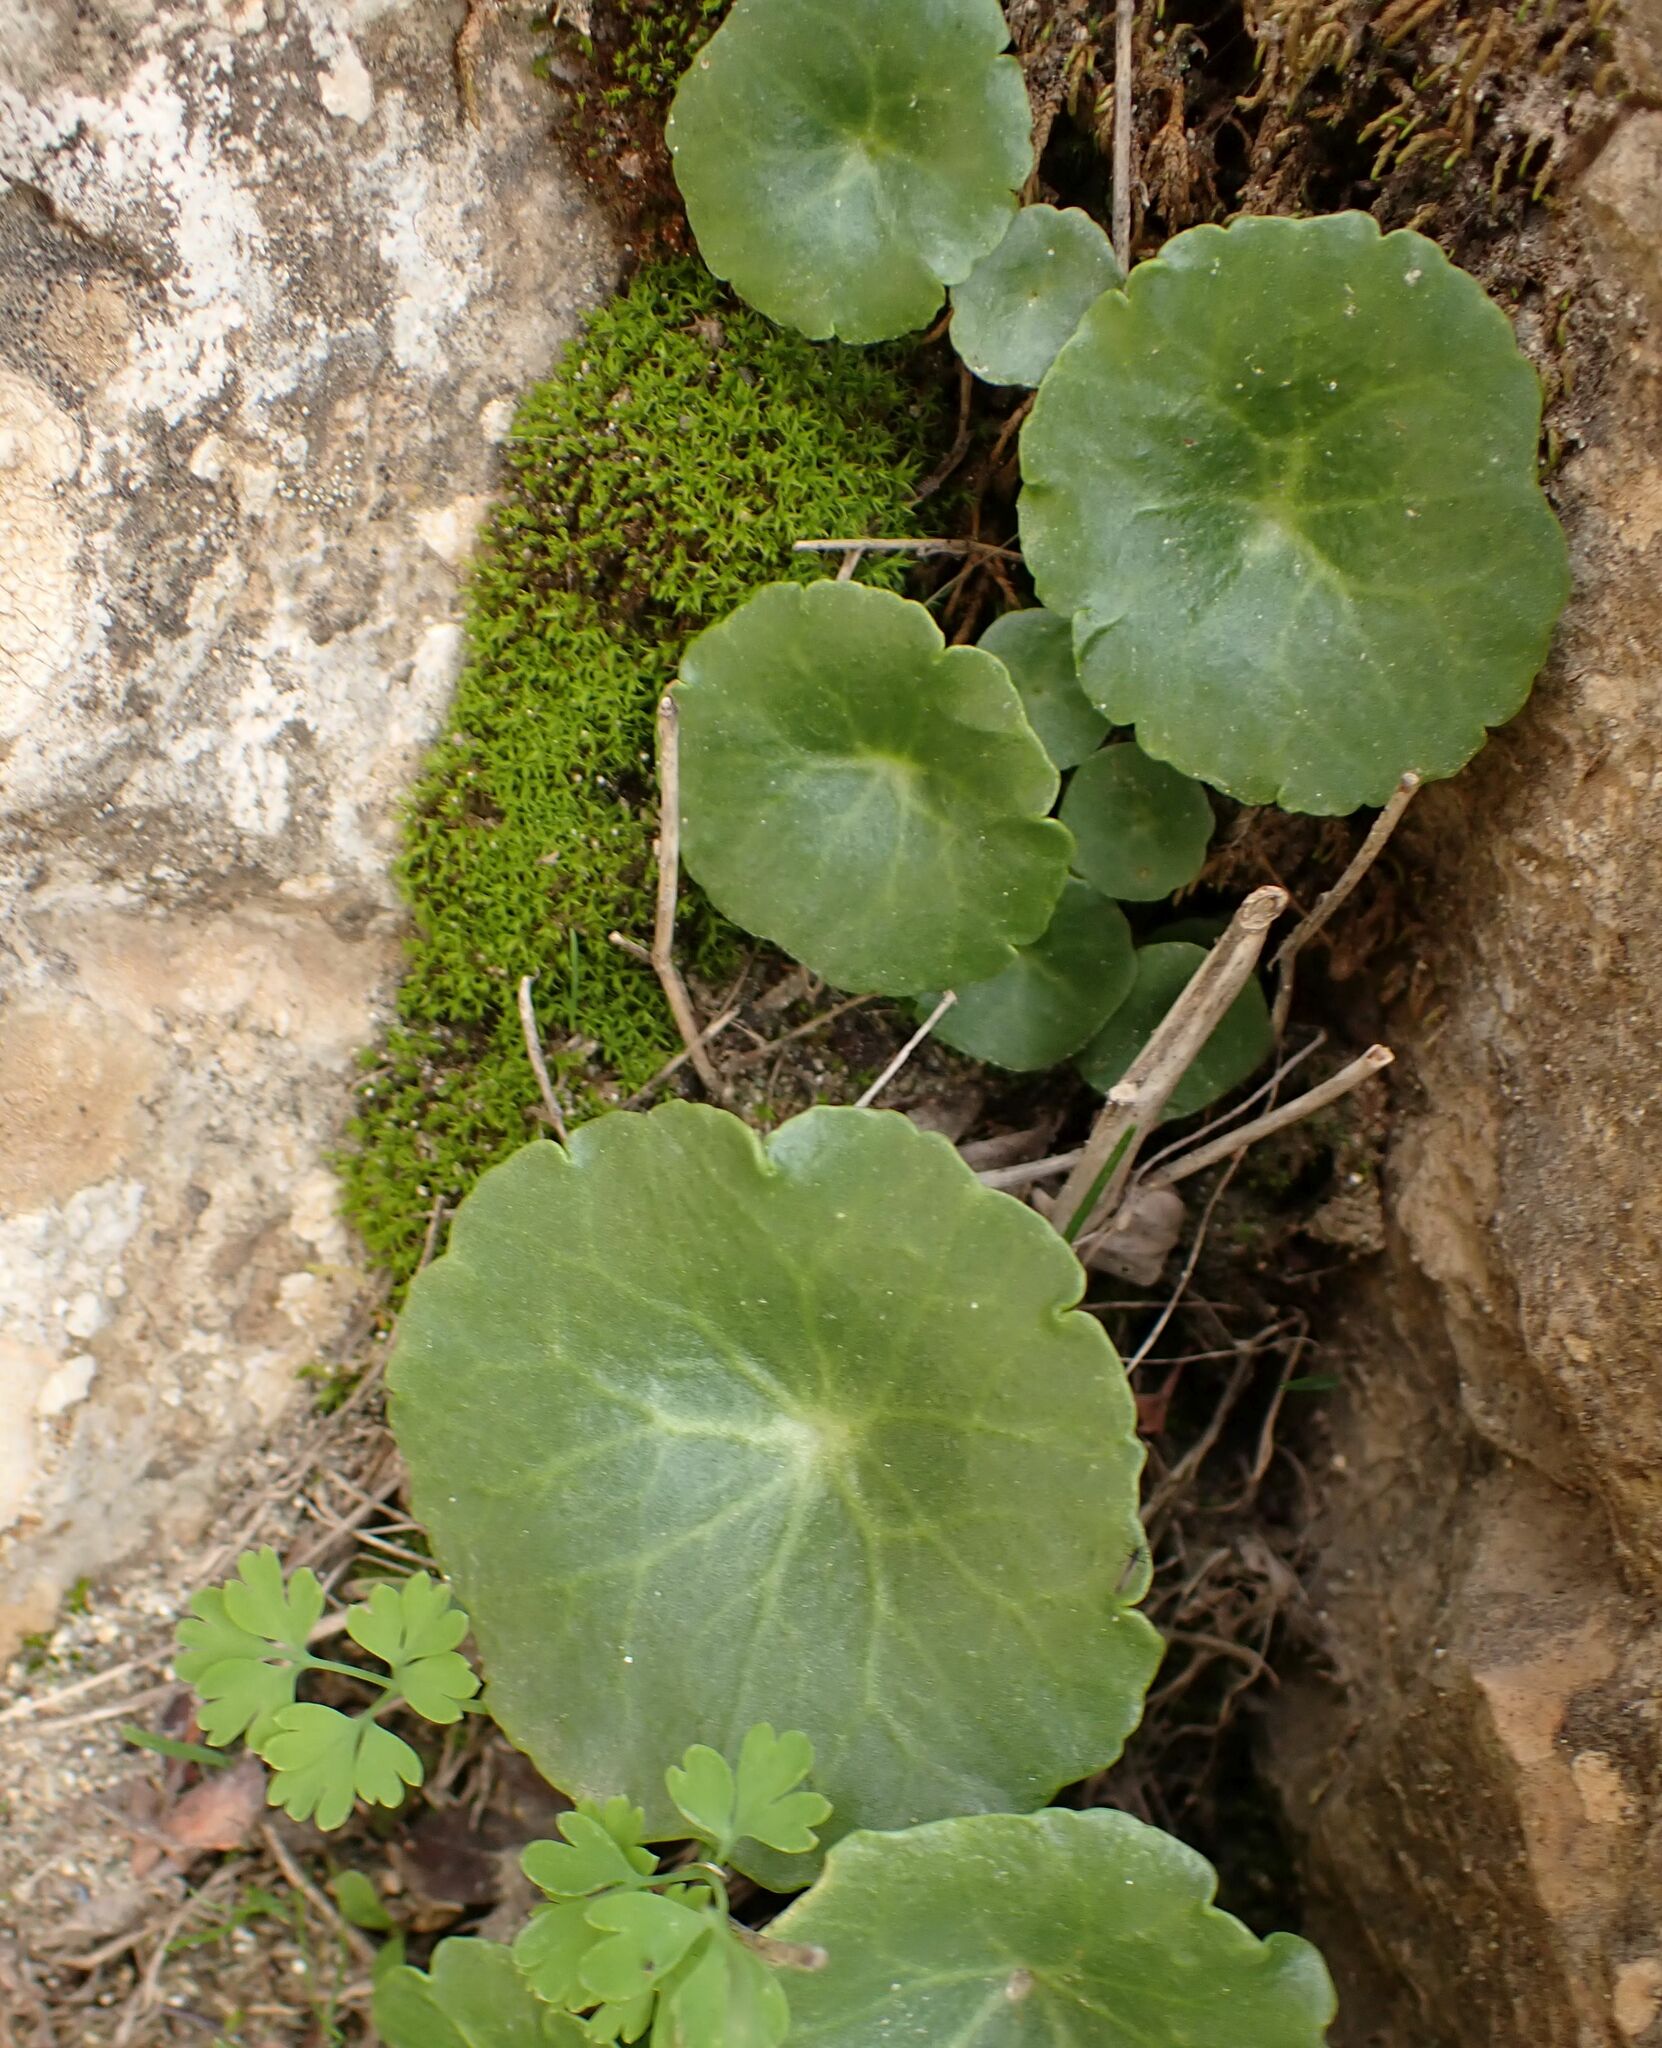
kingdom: Plantae
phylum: Tracheophyta
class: Magnoliopsida
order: Saxifragales
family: Crassulaceae
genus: Umbilicus
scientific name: Umbilicus rupestris
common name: Navelwort
